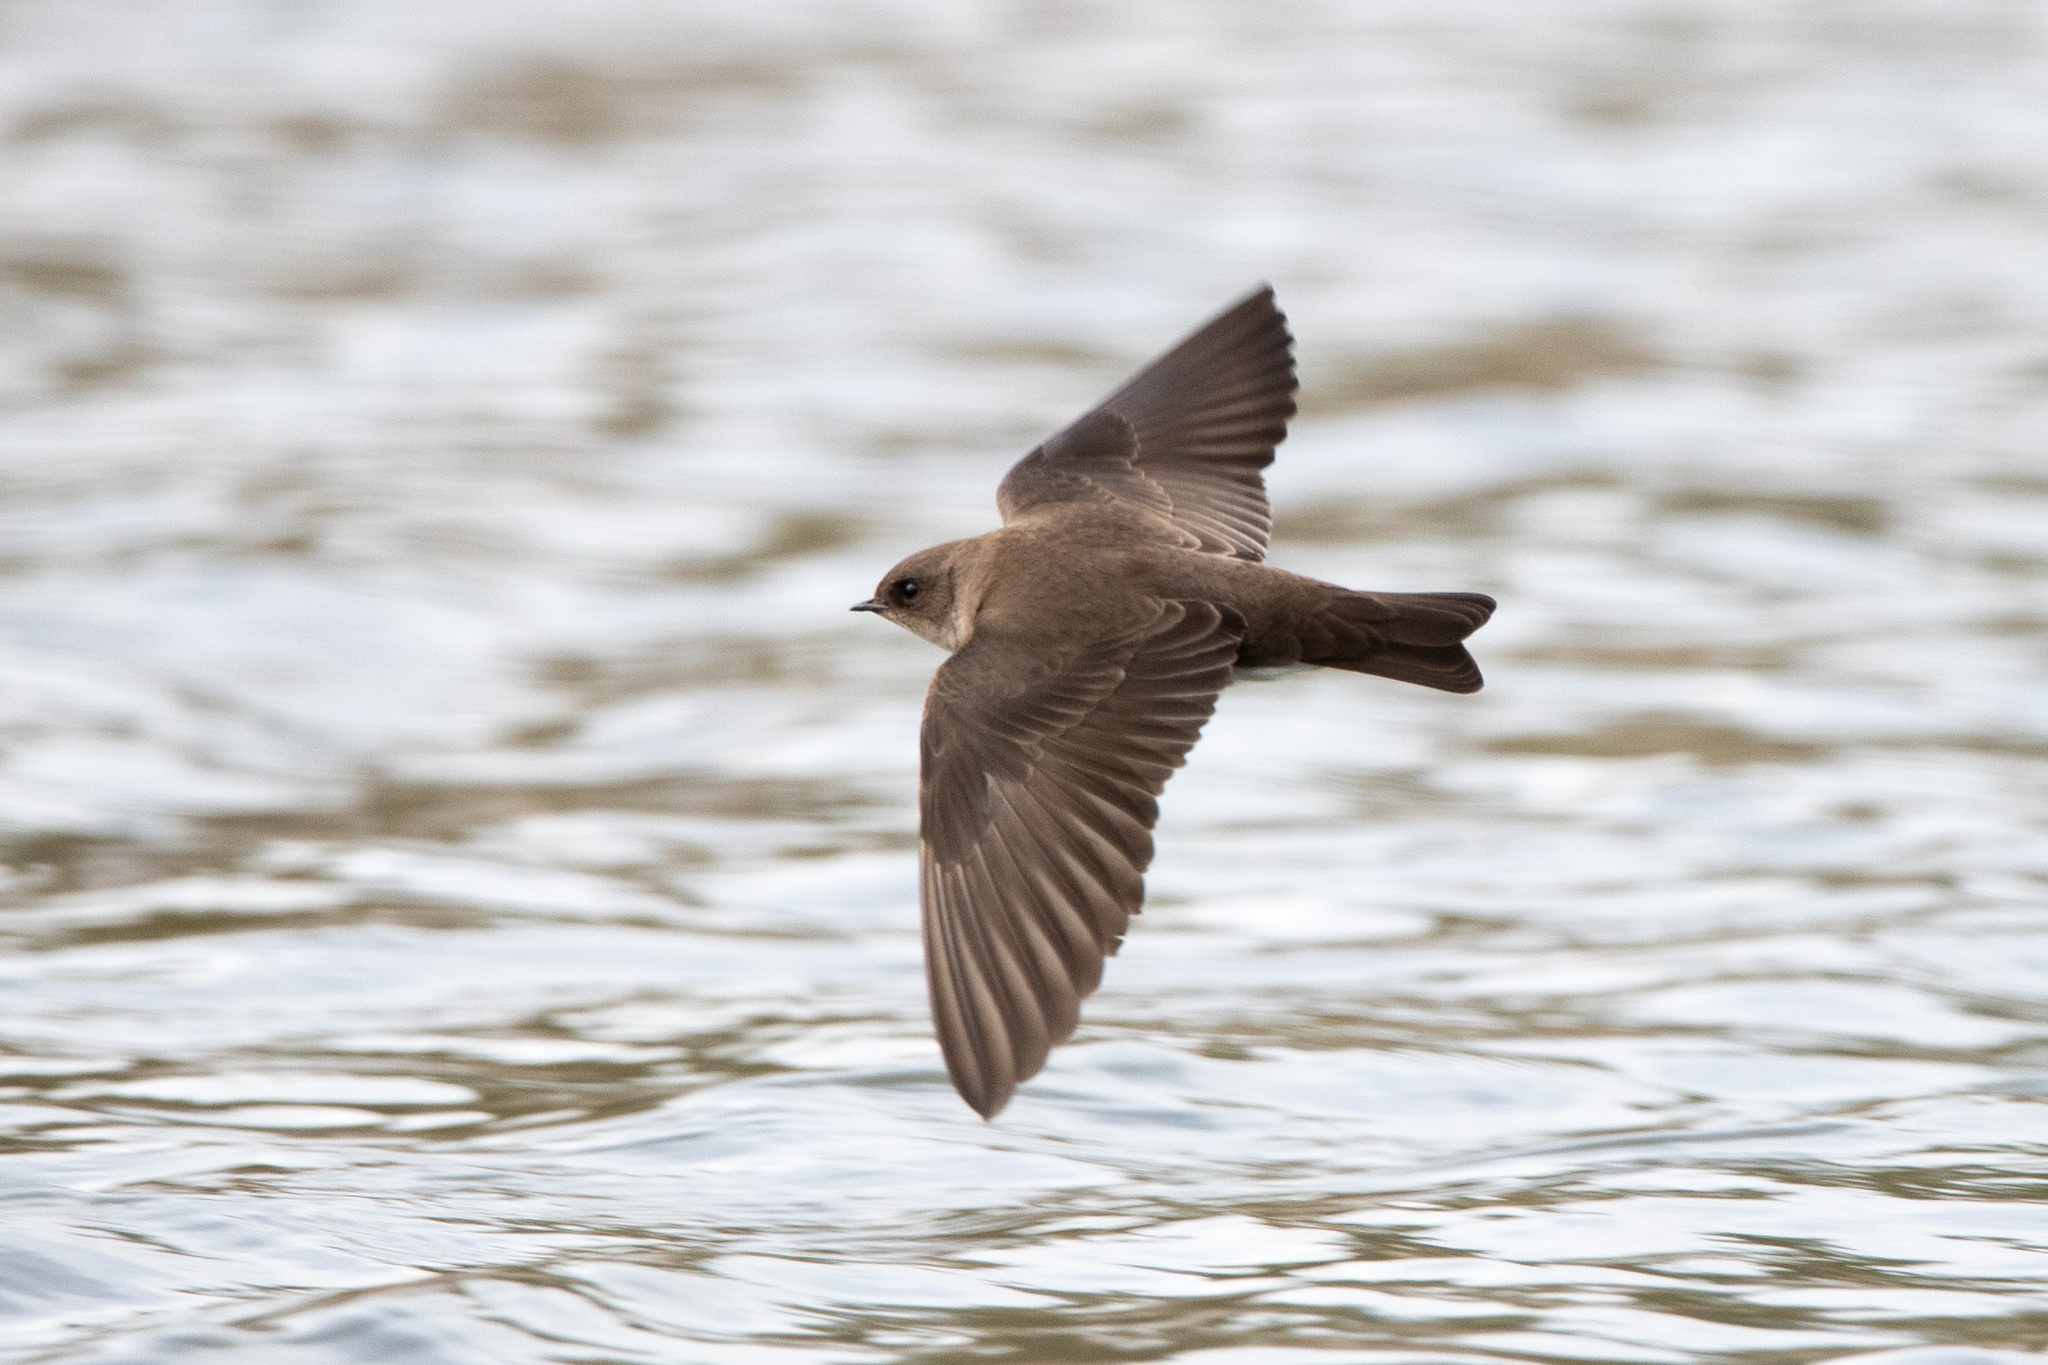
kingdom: Animalia
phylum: Chordata
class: Aves
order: Passeriformes
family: Hirundinidae
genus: Stelgidopteryx
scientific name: Stelgidopteryx serripennis
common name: Northern rough-winged swallow
